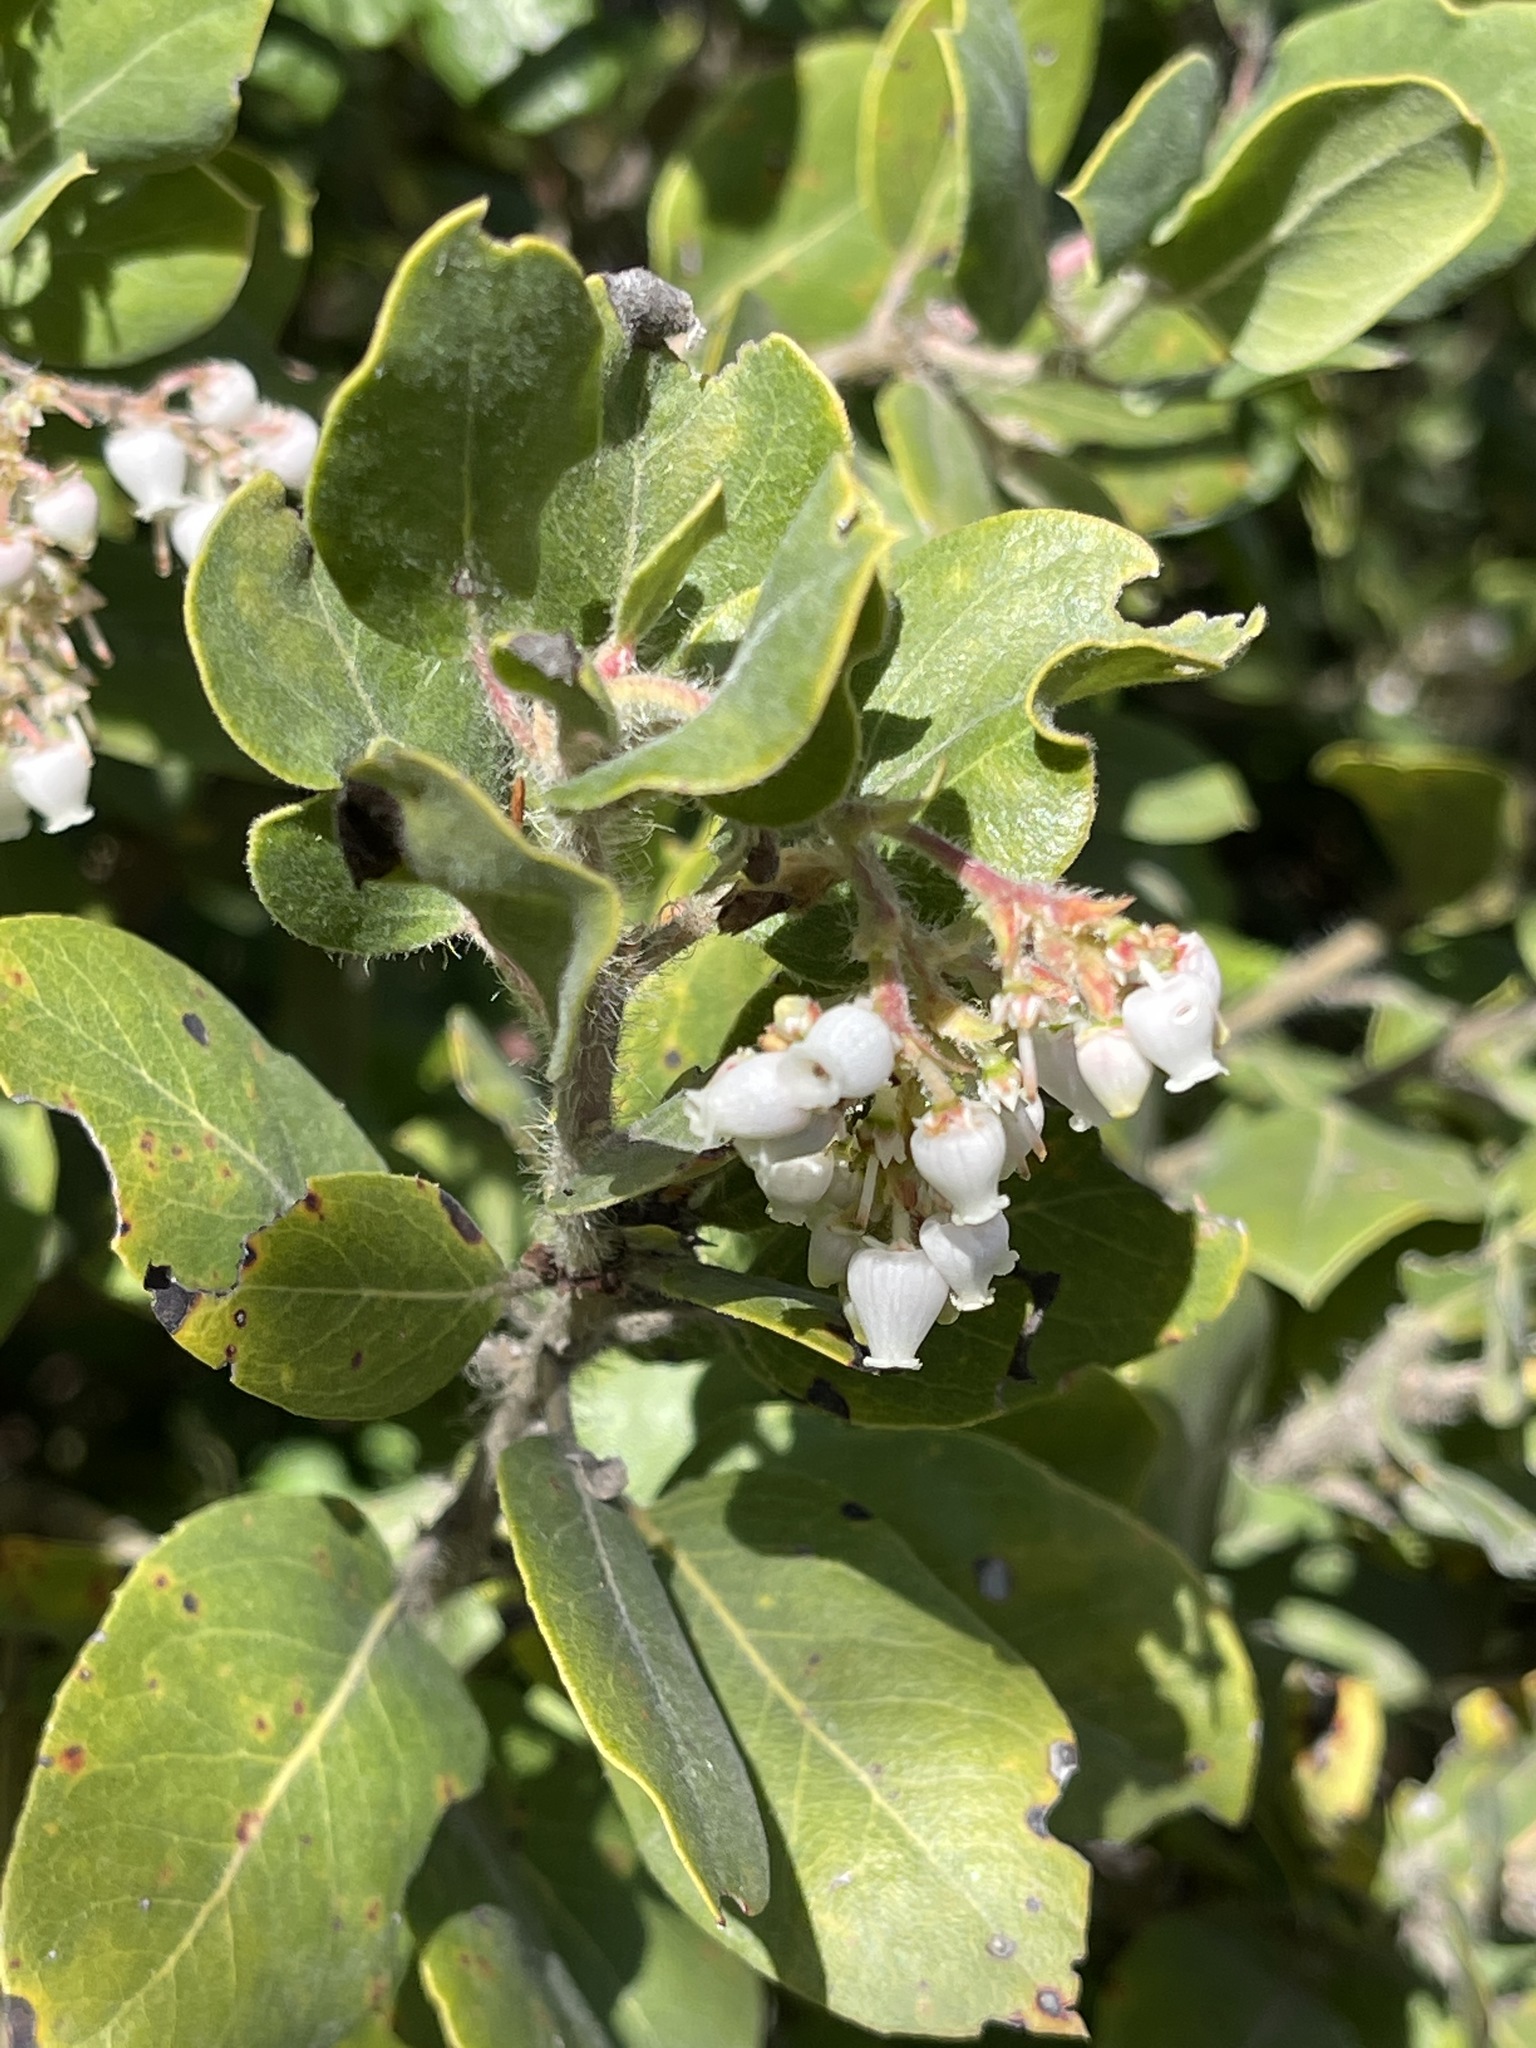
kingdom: Plantae
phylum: Tracheophyta
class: Magnoliopsida
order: Ericales
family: Ericaceae
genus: Arctostaphylos
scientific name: Arctostaphylos crustacea
